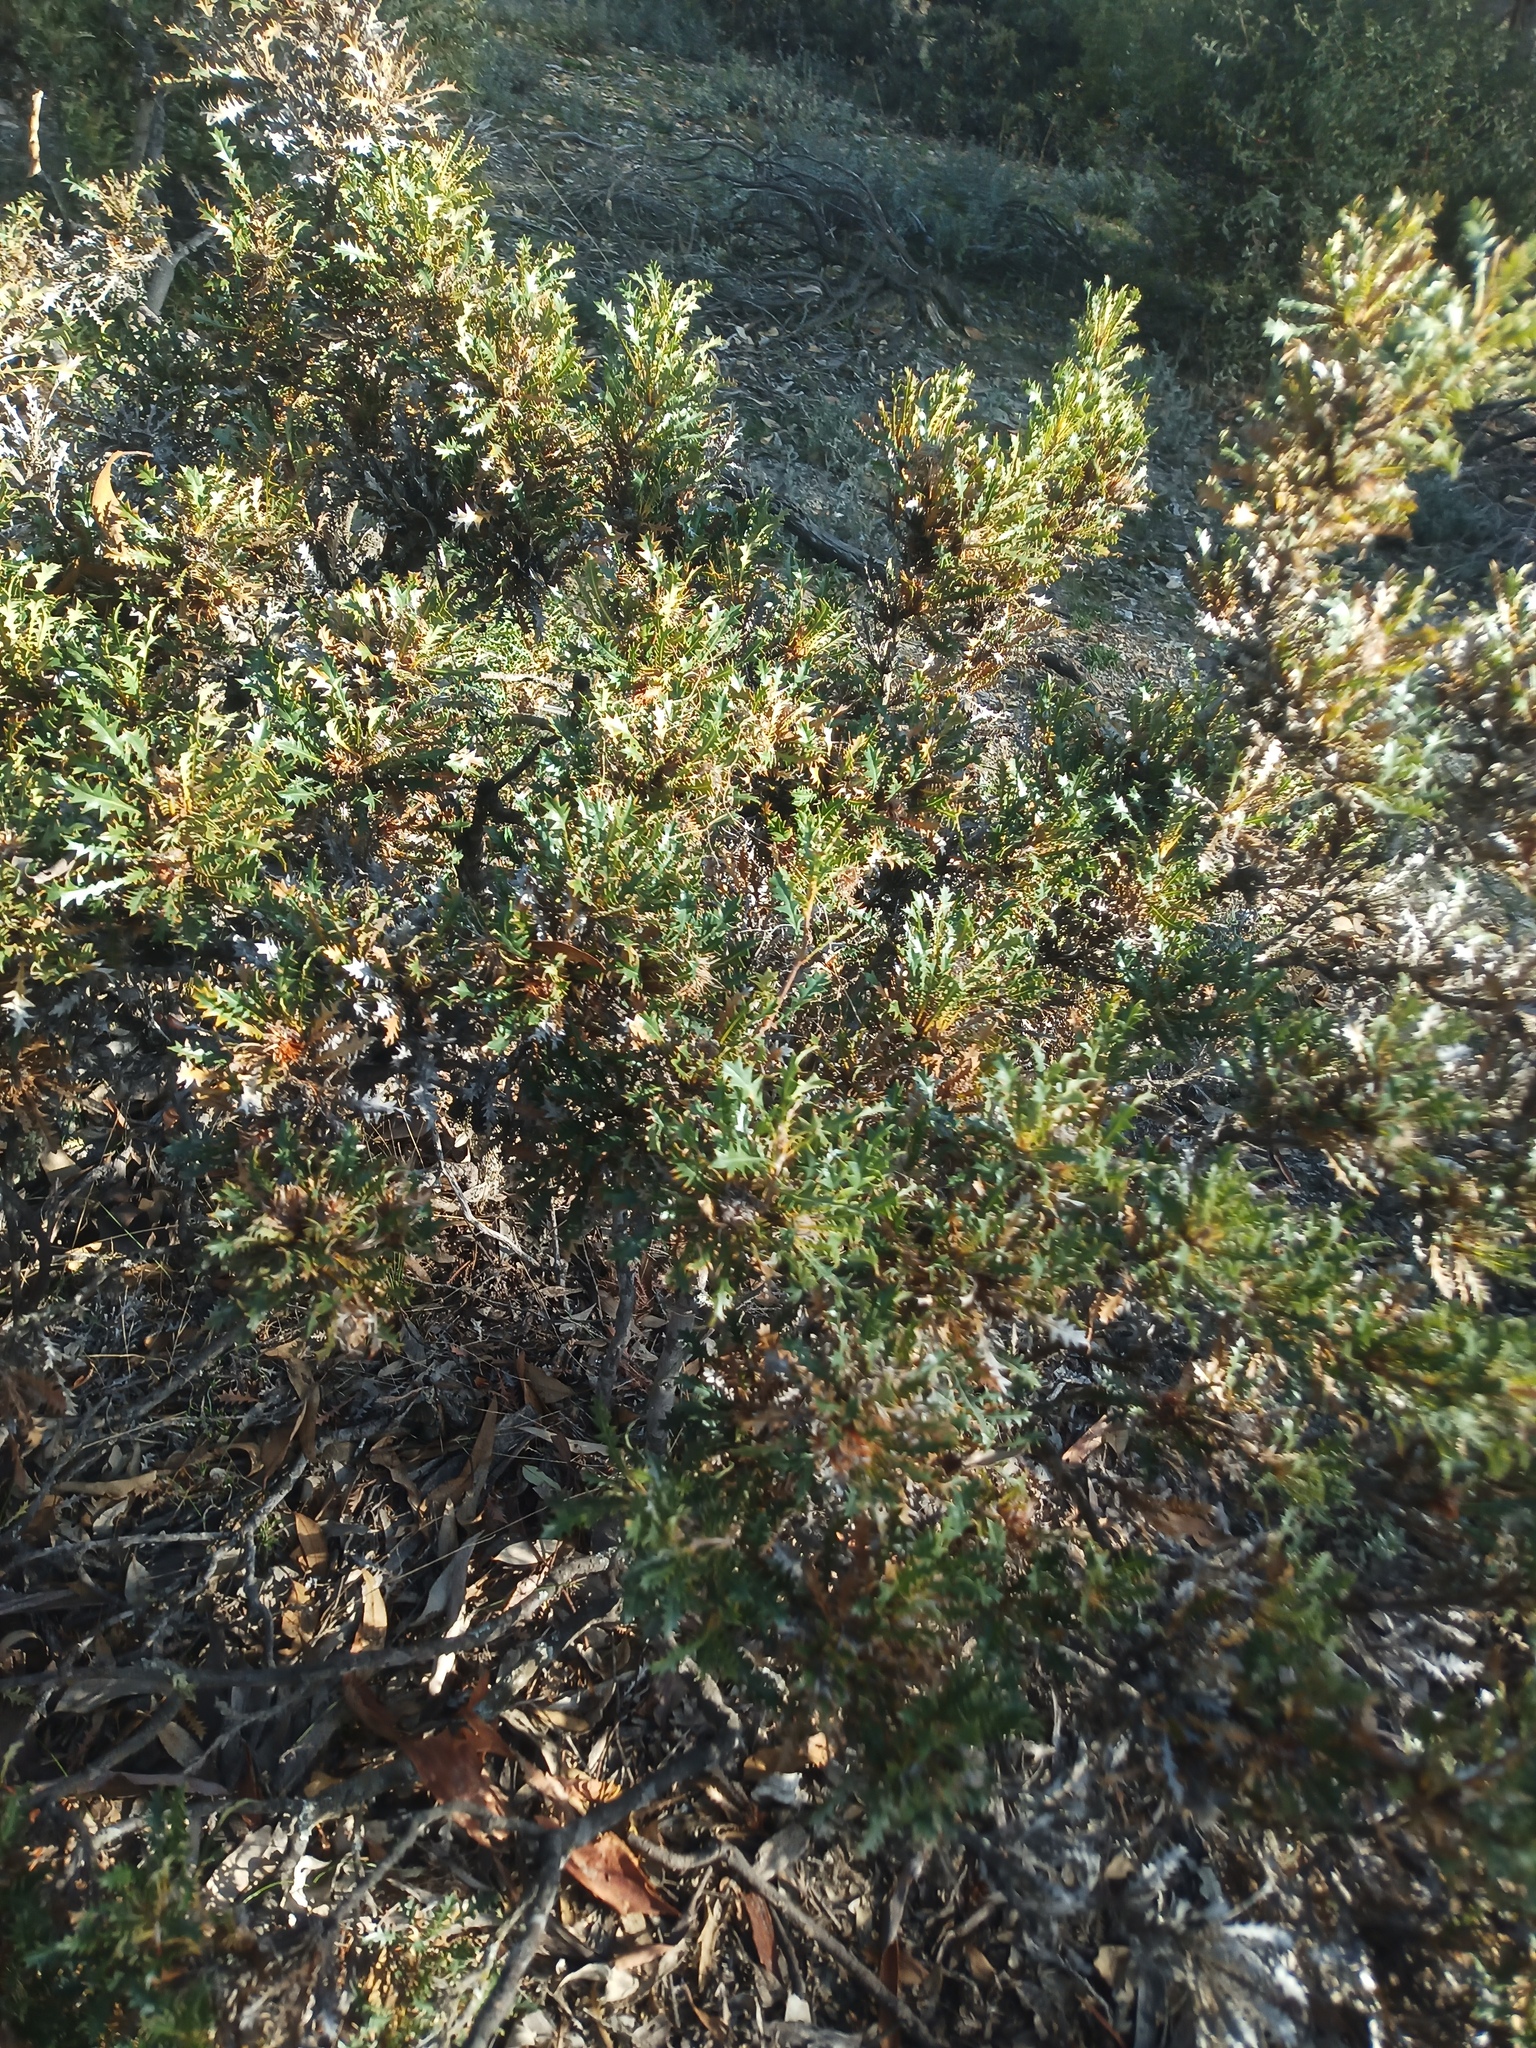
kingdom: Plantae
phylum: Tracheophyta
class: Magnoliopsida
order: Proteales
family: Proteaceae
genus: Banksia
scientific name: Banksia armata
